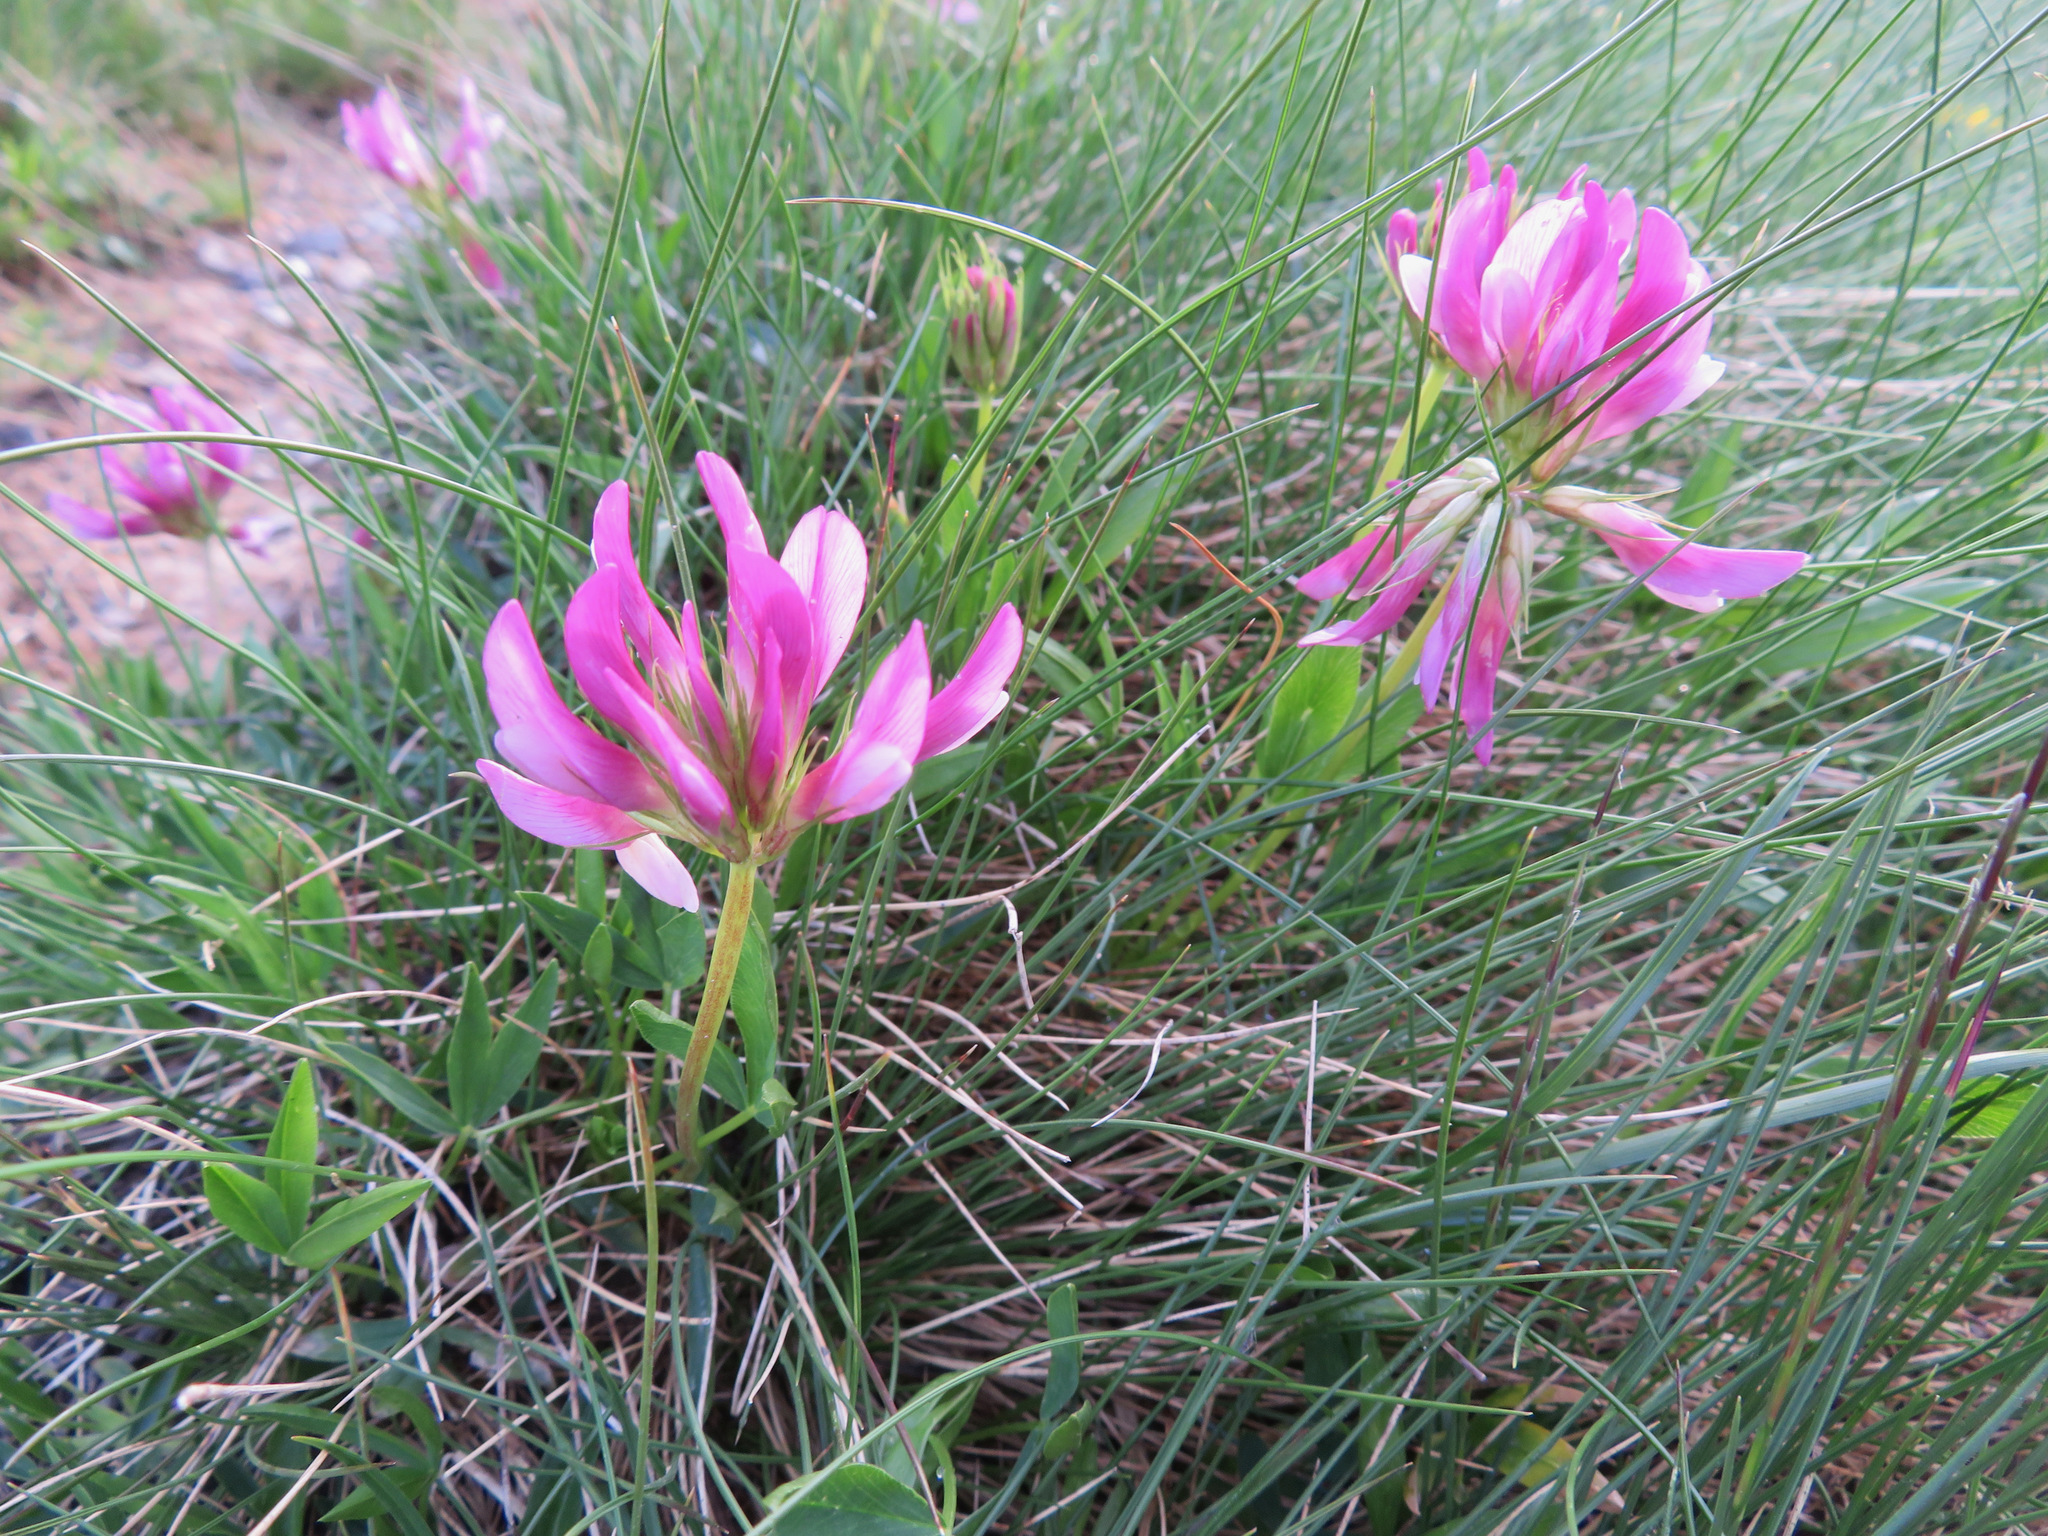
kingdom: Plantae
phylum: Tracheophyta
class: Magnoliopsida
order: Fabales
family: Fabaceae
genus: Trifolium
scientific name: Trifolium alpinum
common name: Alpine clover
